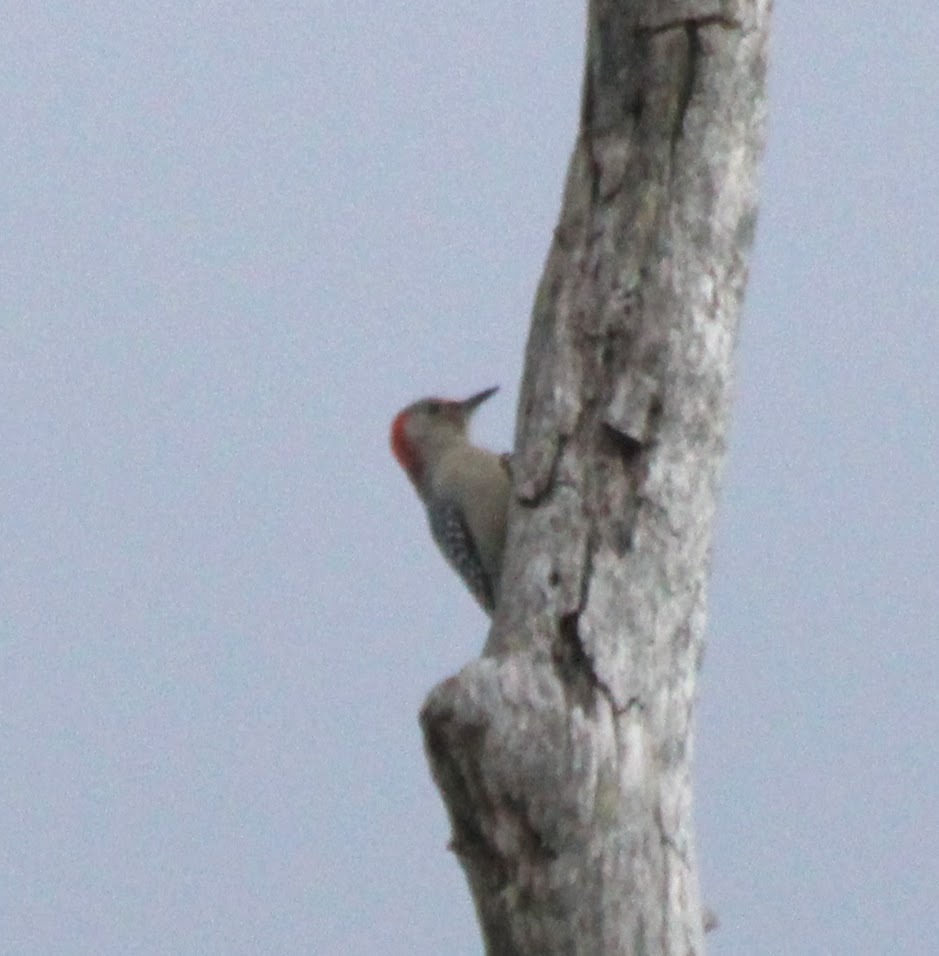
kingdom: Animalia
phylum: Chordata
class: Aves
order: Piciformes
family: Picidae
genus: Melanerpes
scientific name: Melanerpes carolinus
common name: Red-bellied woodpecker
